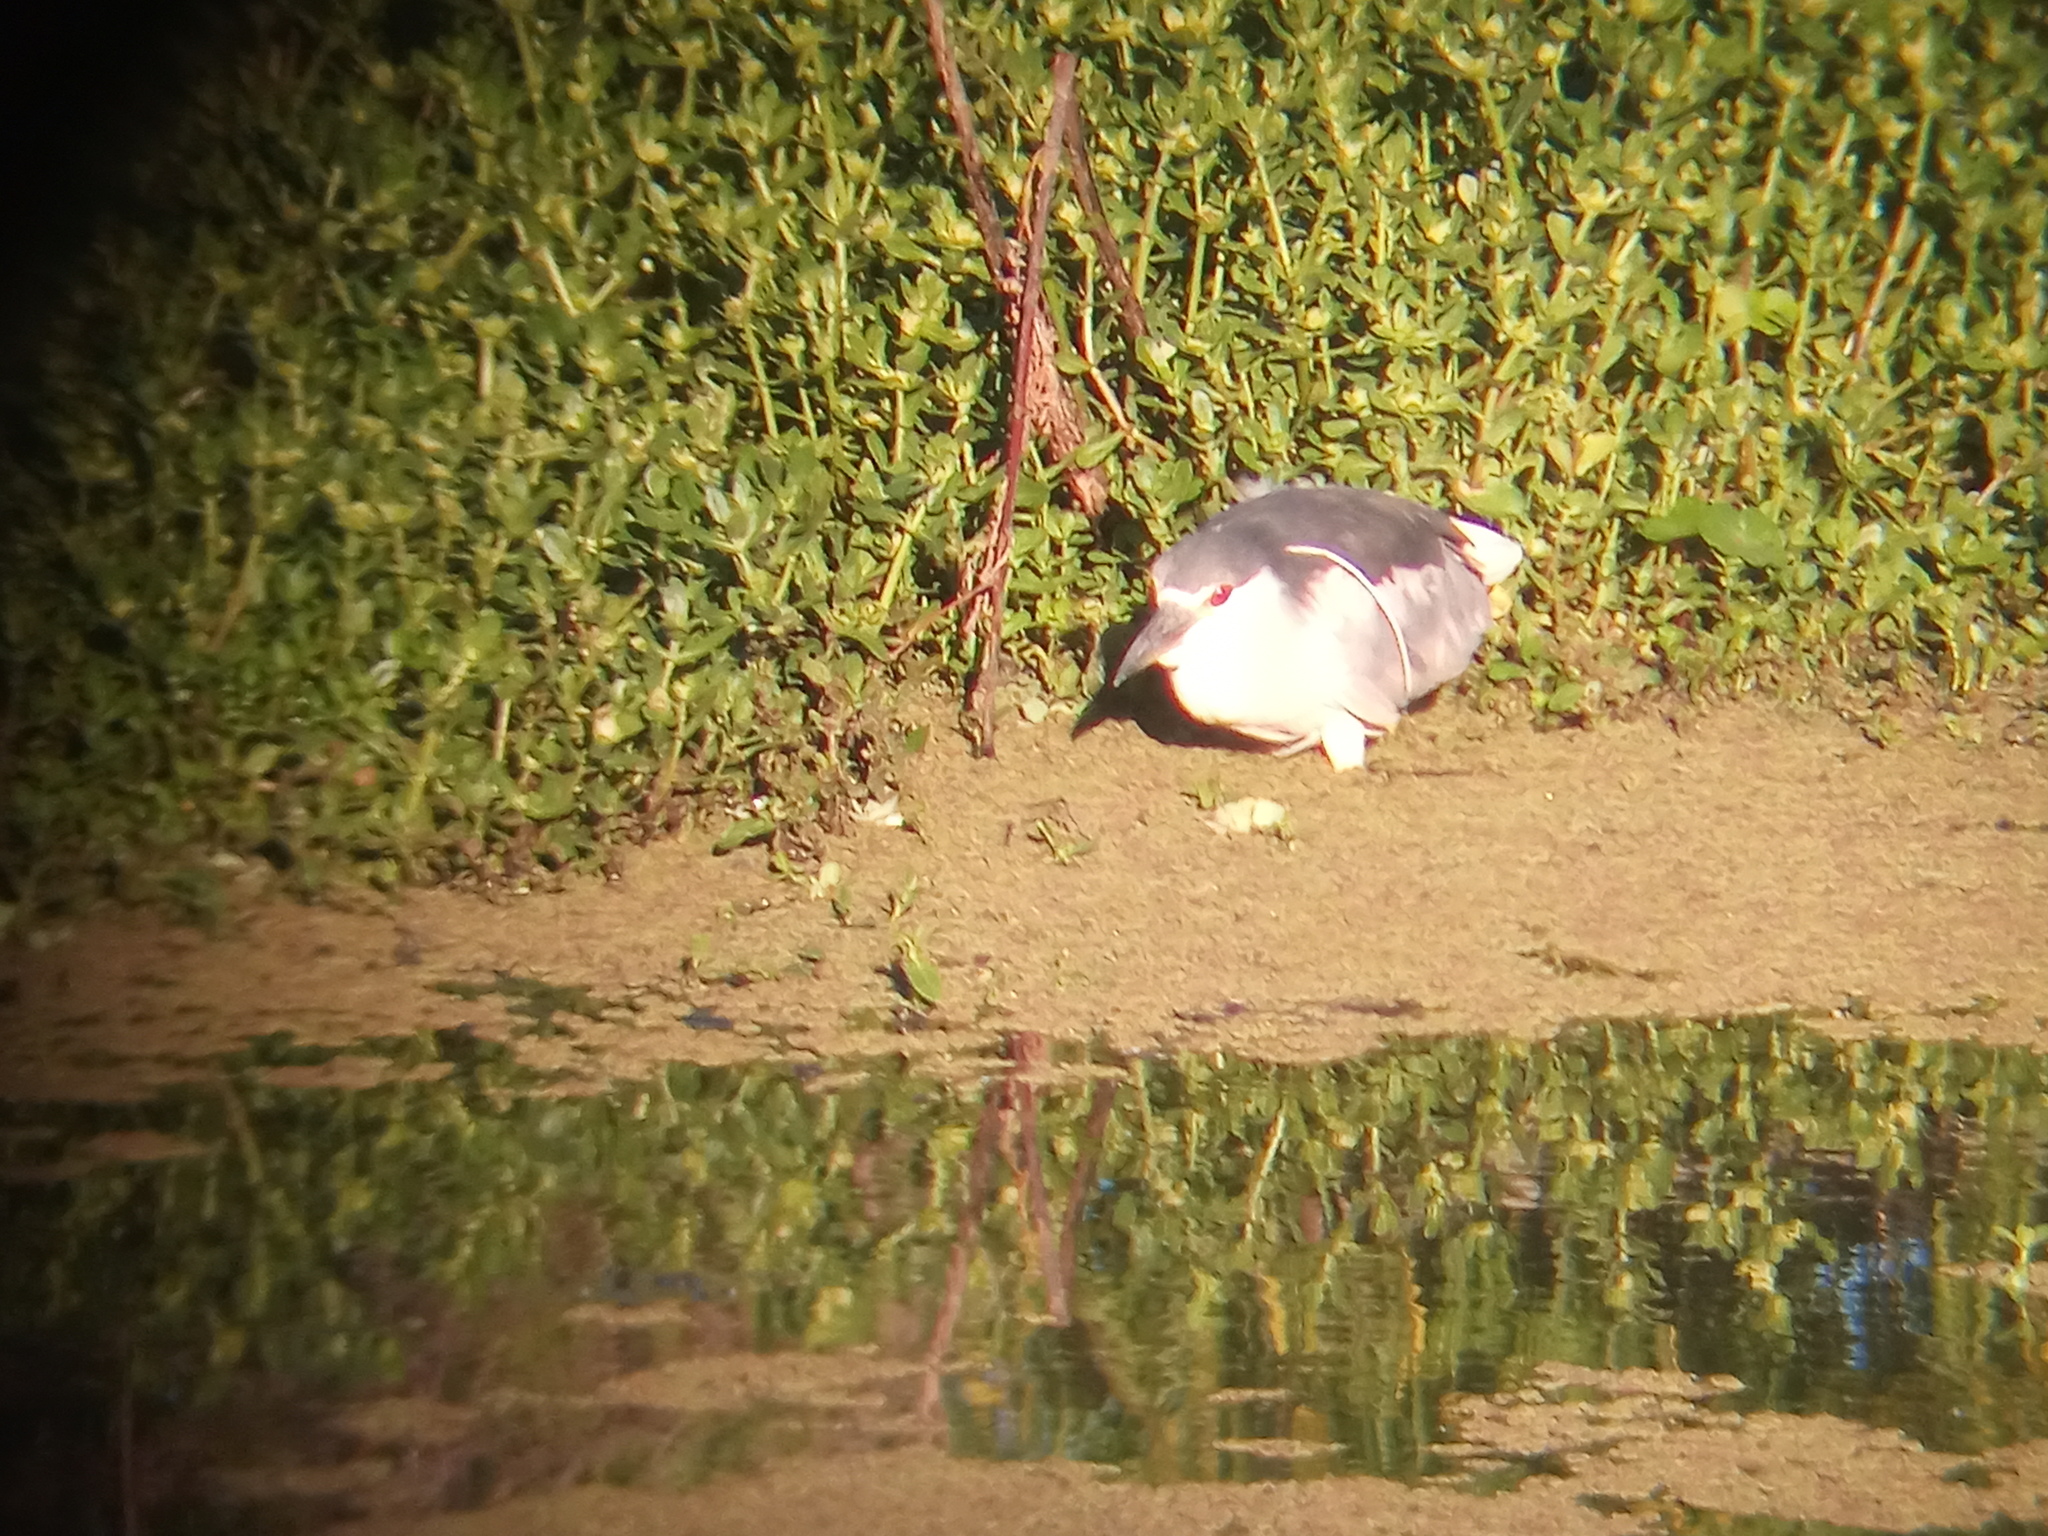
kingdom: Animalia
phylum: Chordata
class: Aves
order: Pelecaniformes
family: Ardeidae
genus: Nycticorax
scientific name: Nycticorax nycticorax
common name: Black-crowned night heron
